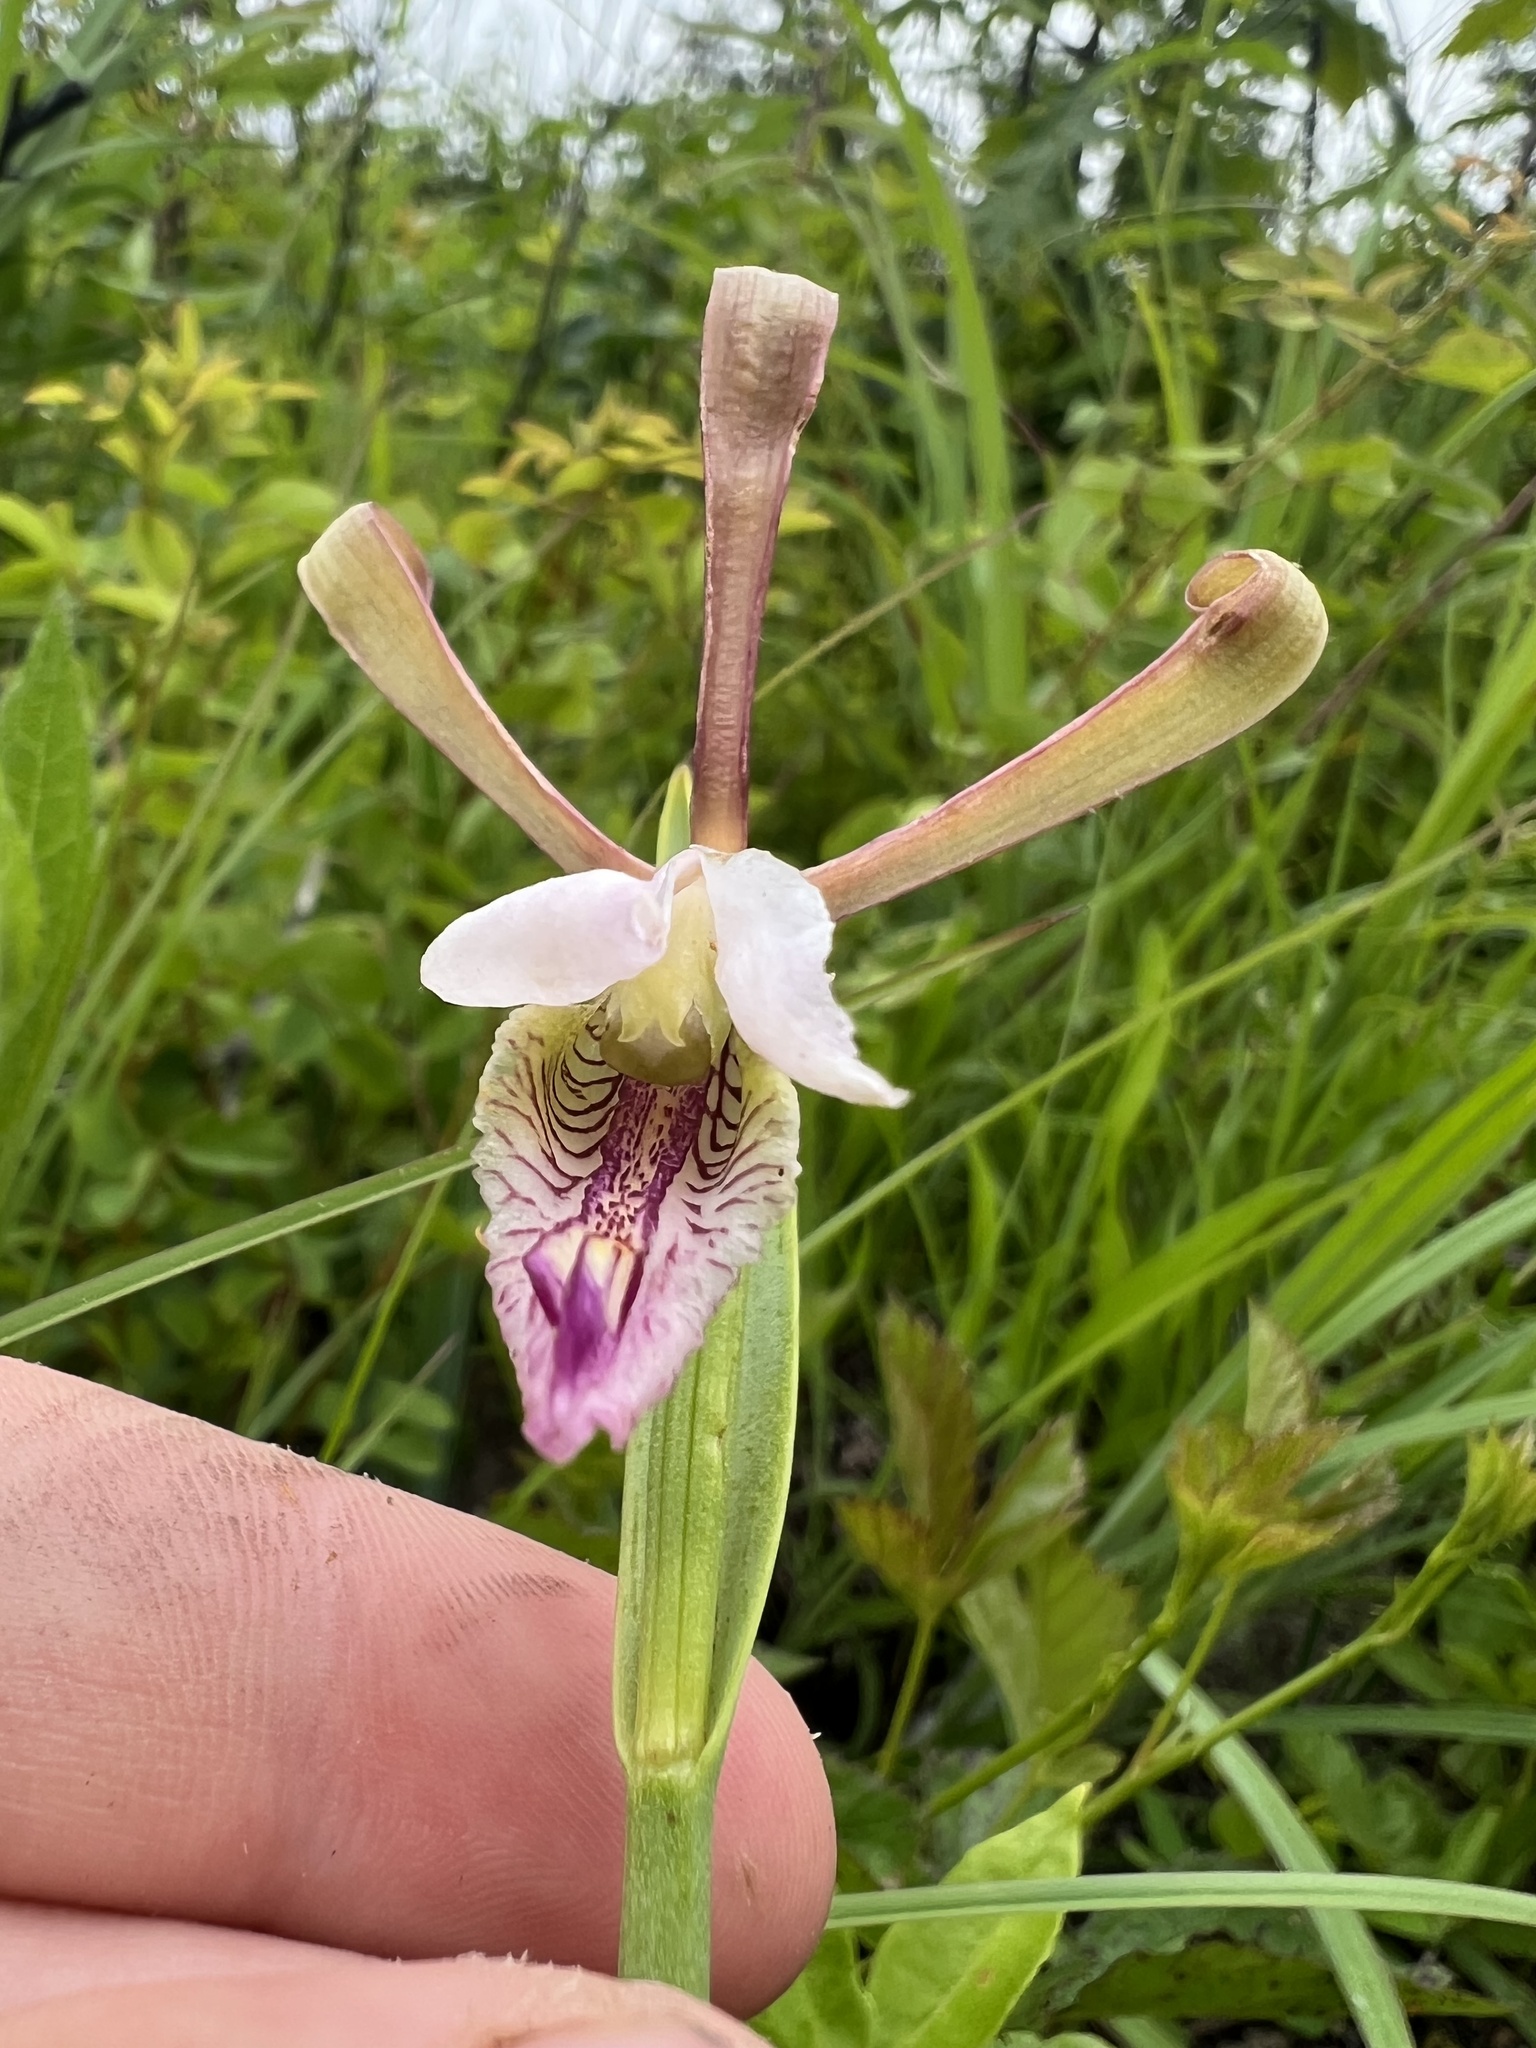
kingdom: Plantae
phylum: Tracheophyta
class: Liliopsida
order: Asparagales
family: Orchidaceae
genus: Cleistesiopsis
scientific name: Cleistesiopsis bifaria
